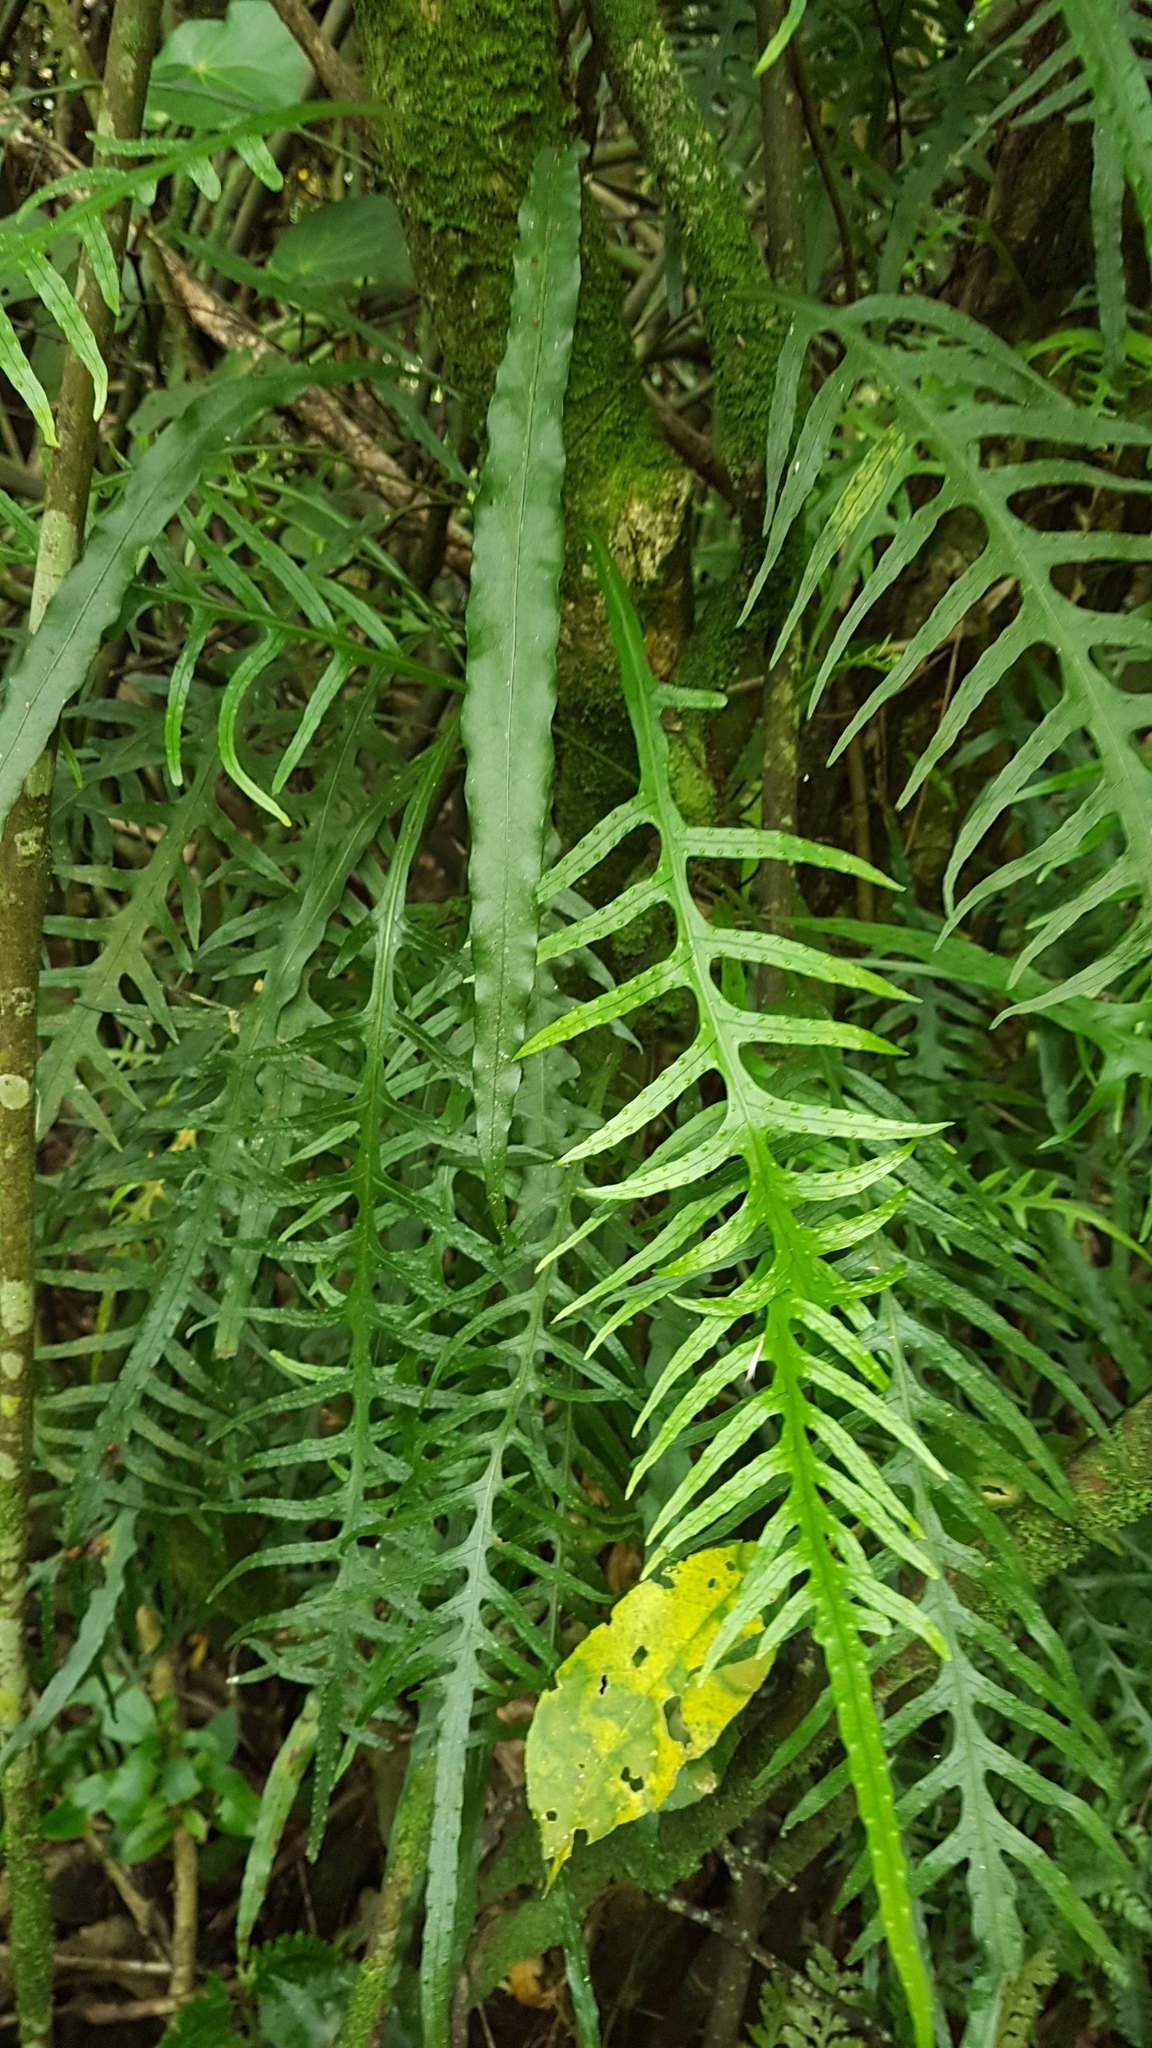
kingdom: Plantae
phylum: Tracheophyta
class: Polypodiopsida
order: Polypodiales
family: Polypodiaceae
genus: Lecanopteris
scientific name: Lecanopteris scandens
